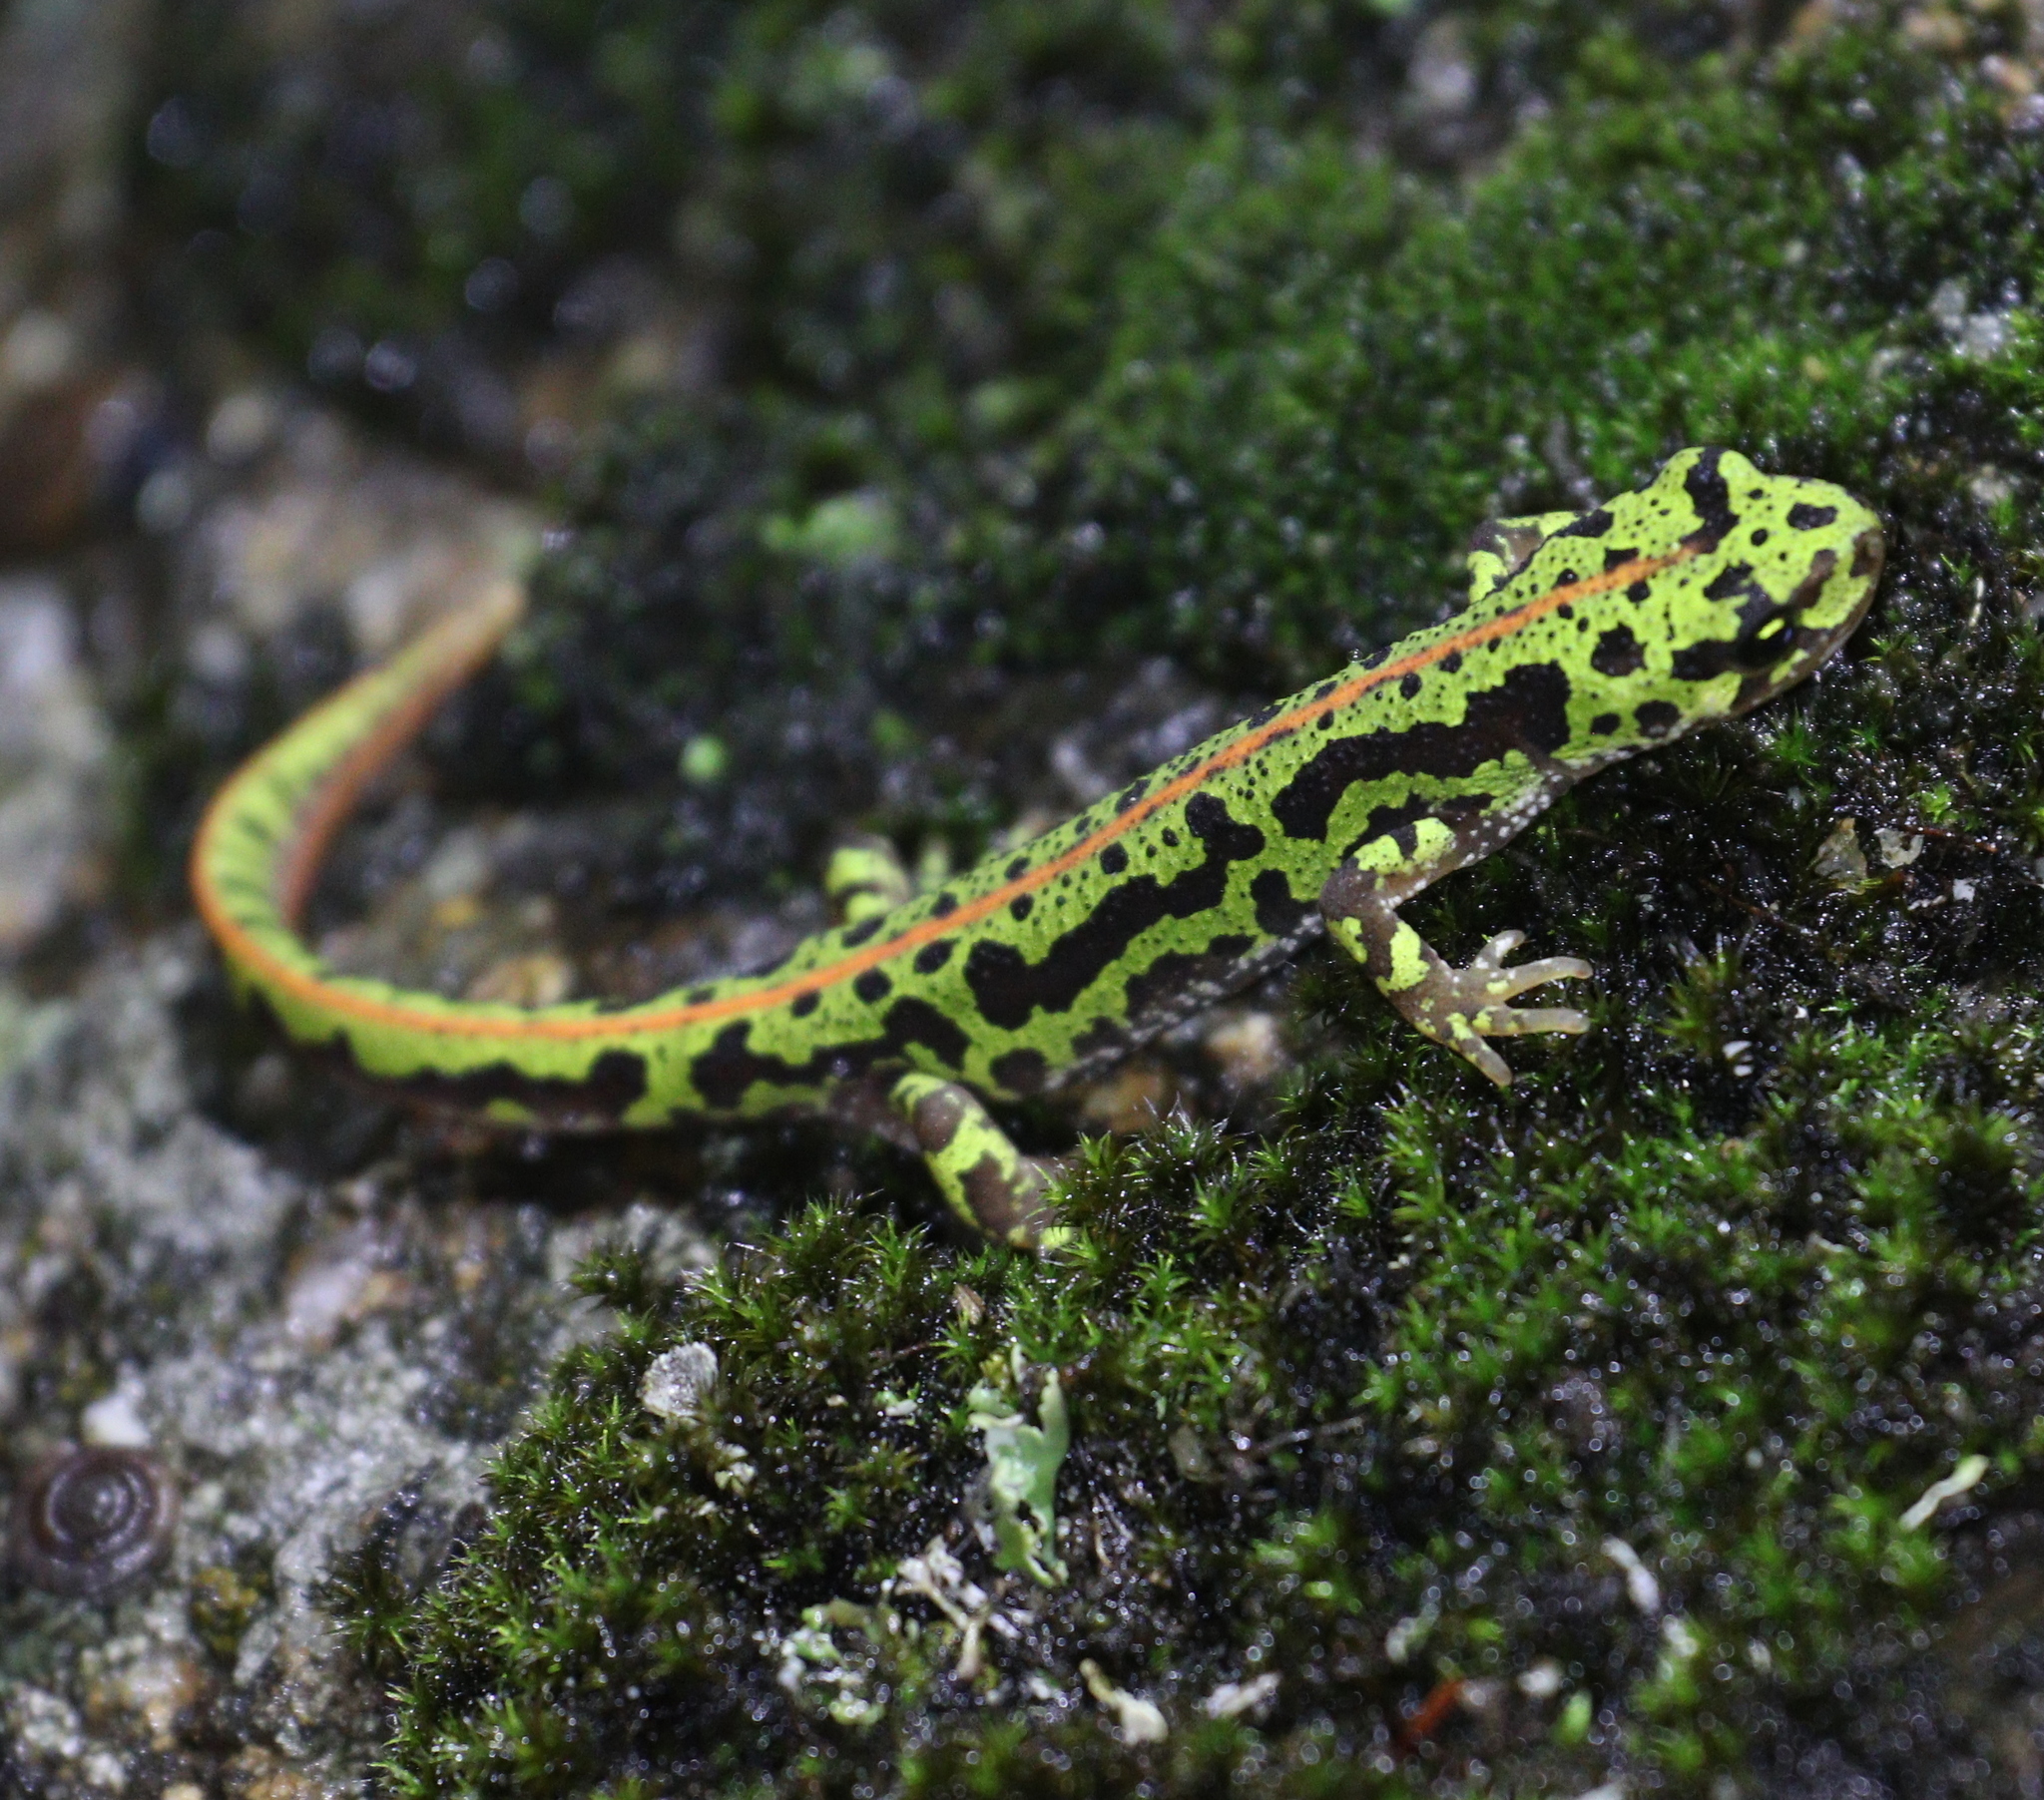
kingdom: Animalia
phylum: Chordata
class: Amphibia
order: Caudata
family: Salamandridae
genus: Triturus
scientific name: Triturus pygmaeus
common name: Southern marbled newt
